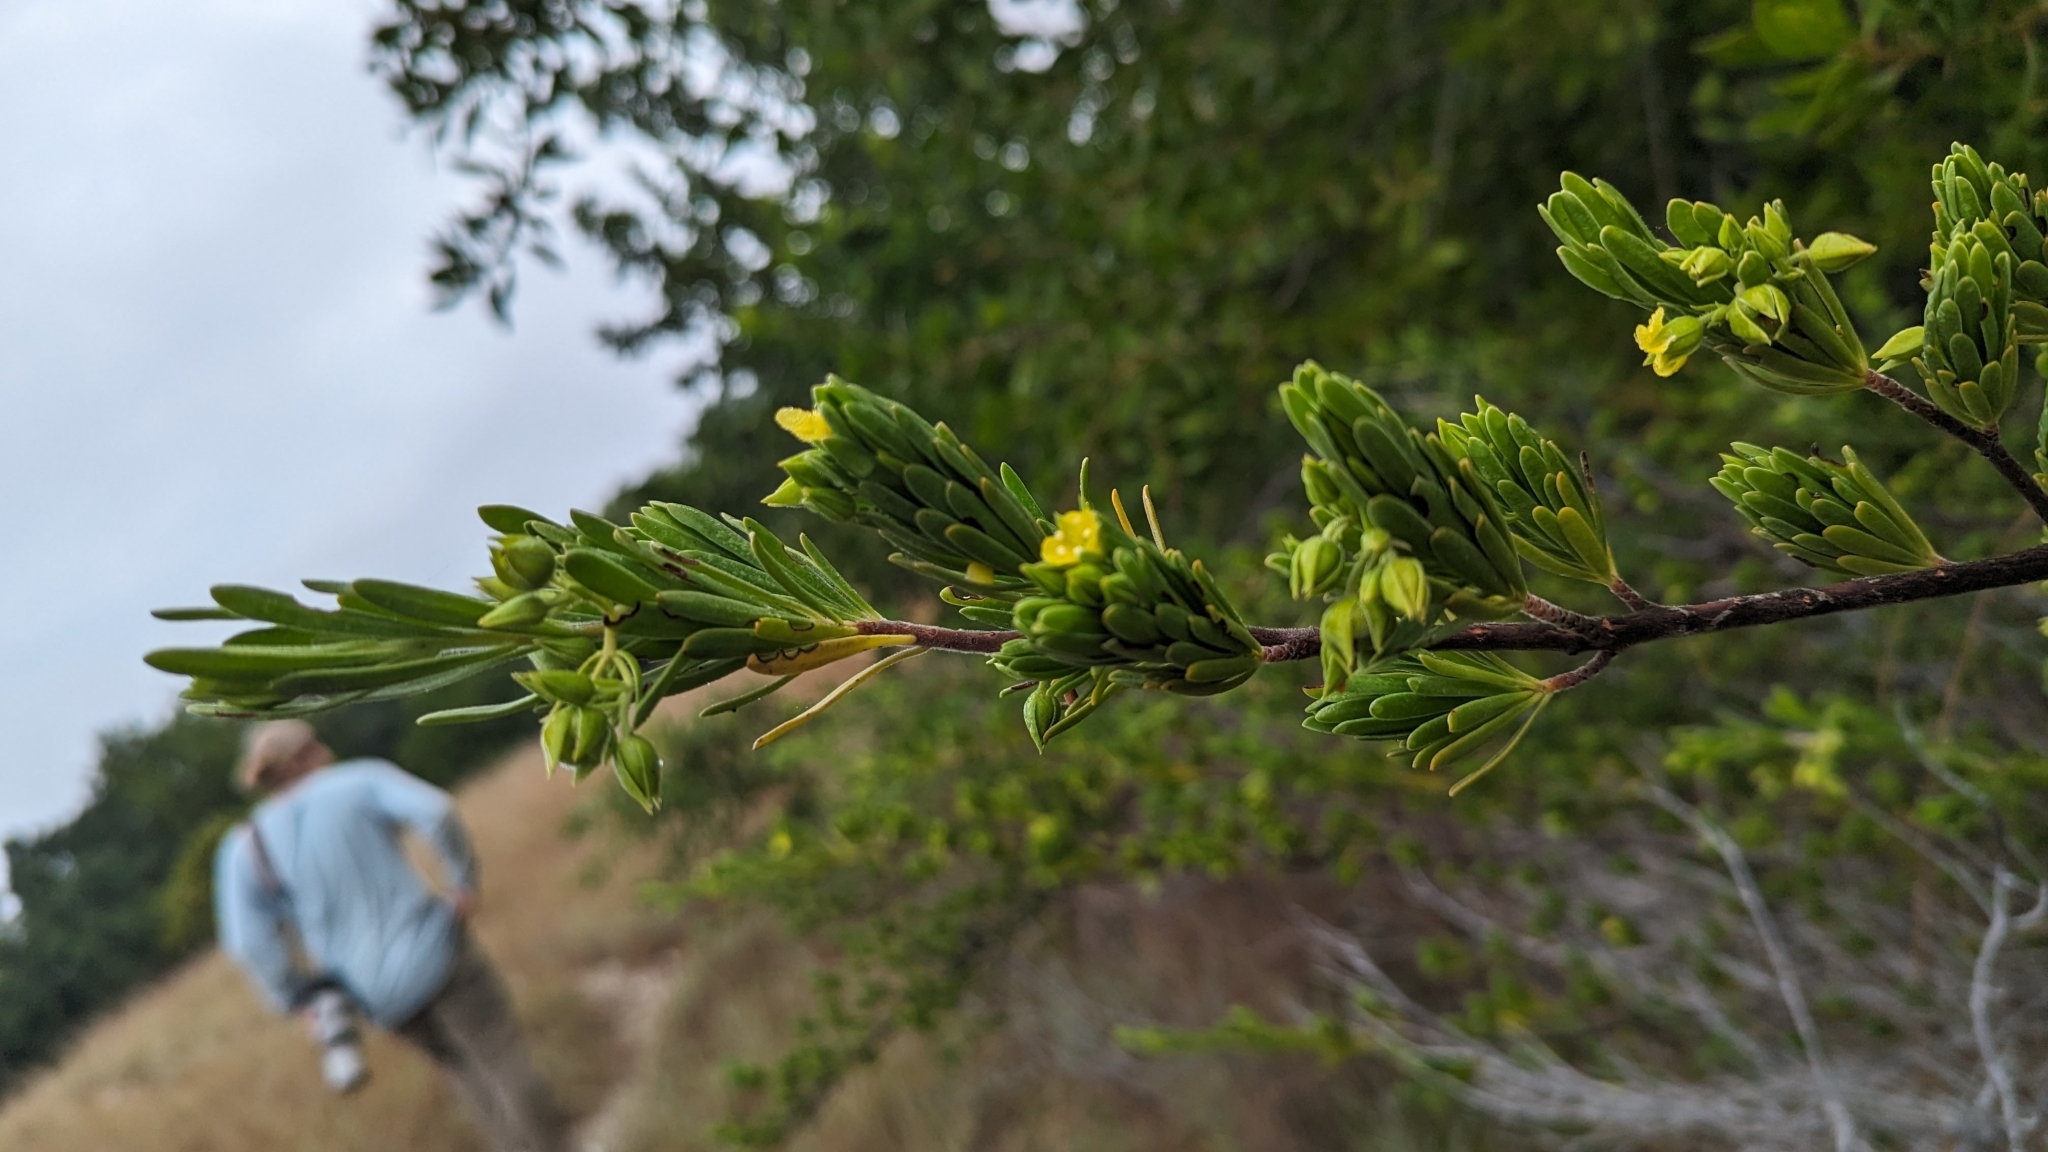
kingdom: Plantae
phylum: Tracheophyta
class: Magnoliopsida
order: Fabales
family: Surianaceae
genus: Suriana
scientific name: Suriana maritima
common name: Bay-cedar
